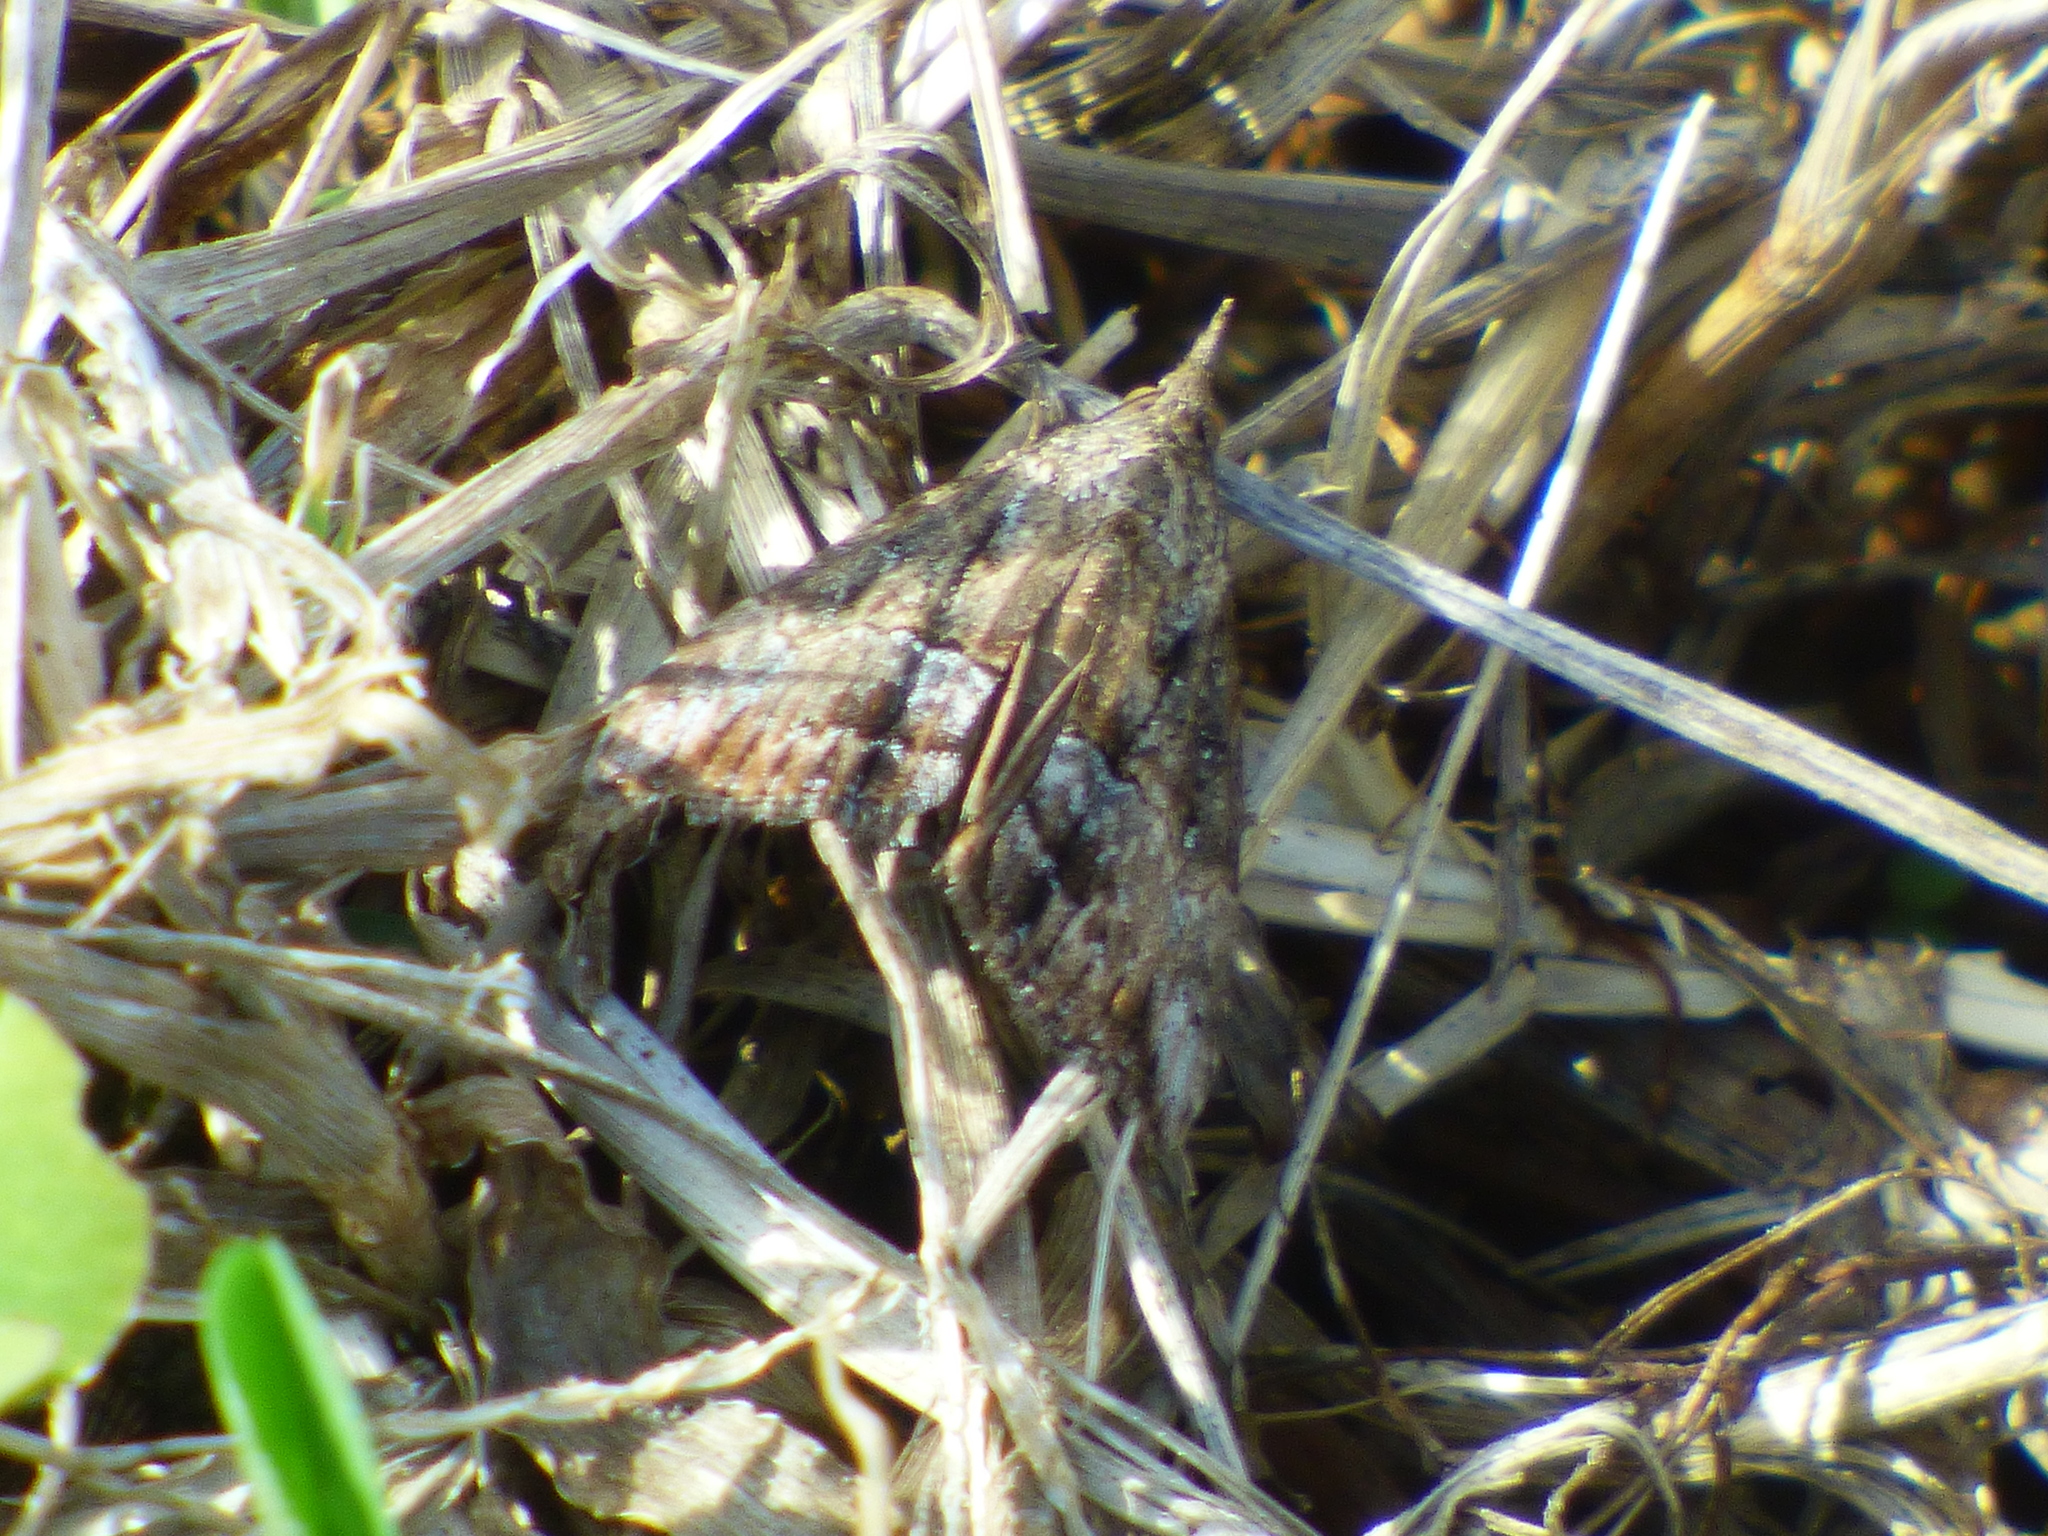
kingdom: Animalia
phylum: Arthropoda
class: Insecta
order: Lepidoptera
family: Erebidae
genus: Hypena
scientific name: Hypena scabra
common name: Green cloverworm
